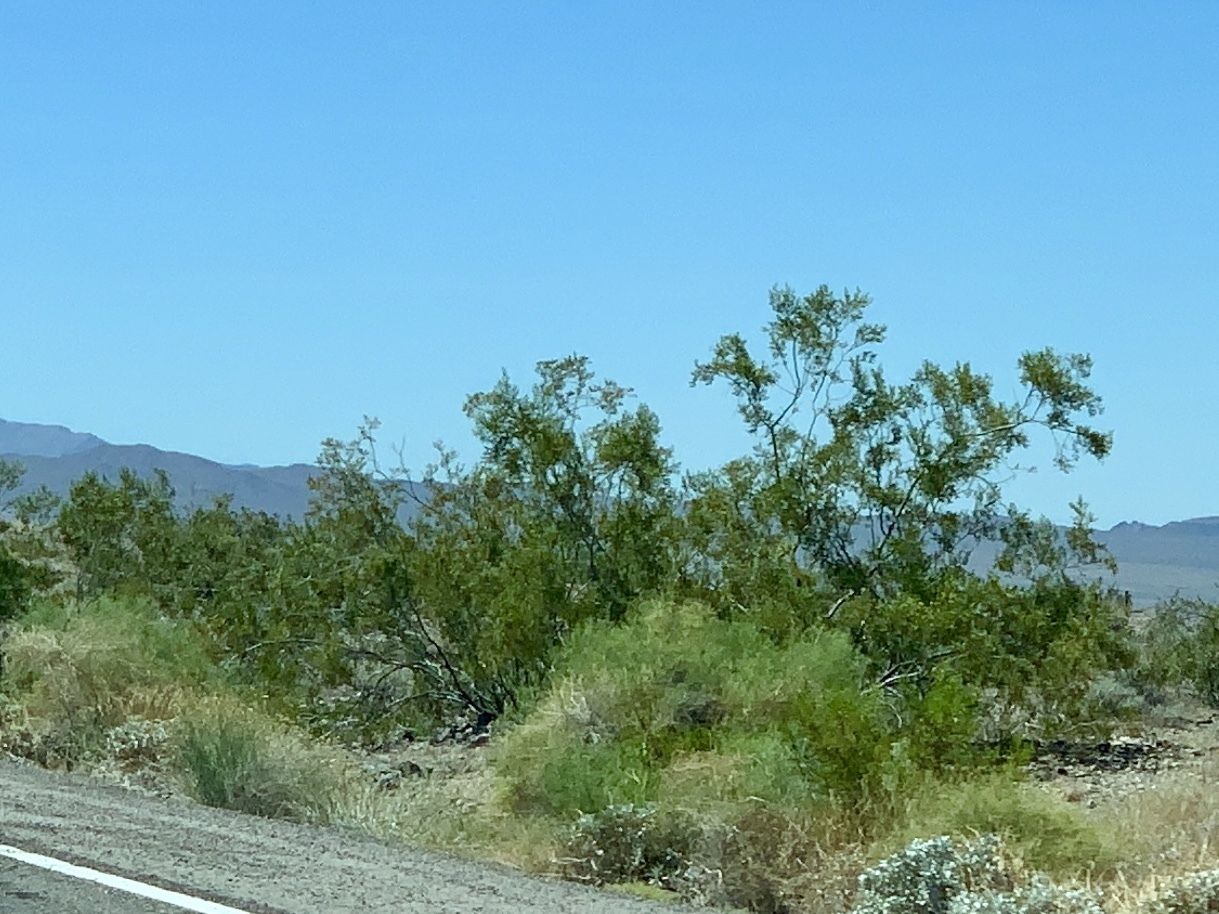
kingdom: Plantae
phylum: Tracheophyta
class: Magnoliopsida
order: Zygophyllales
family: Zygophyllaceae
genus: Larrea
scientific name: Larrea tridentata
